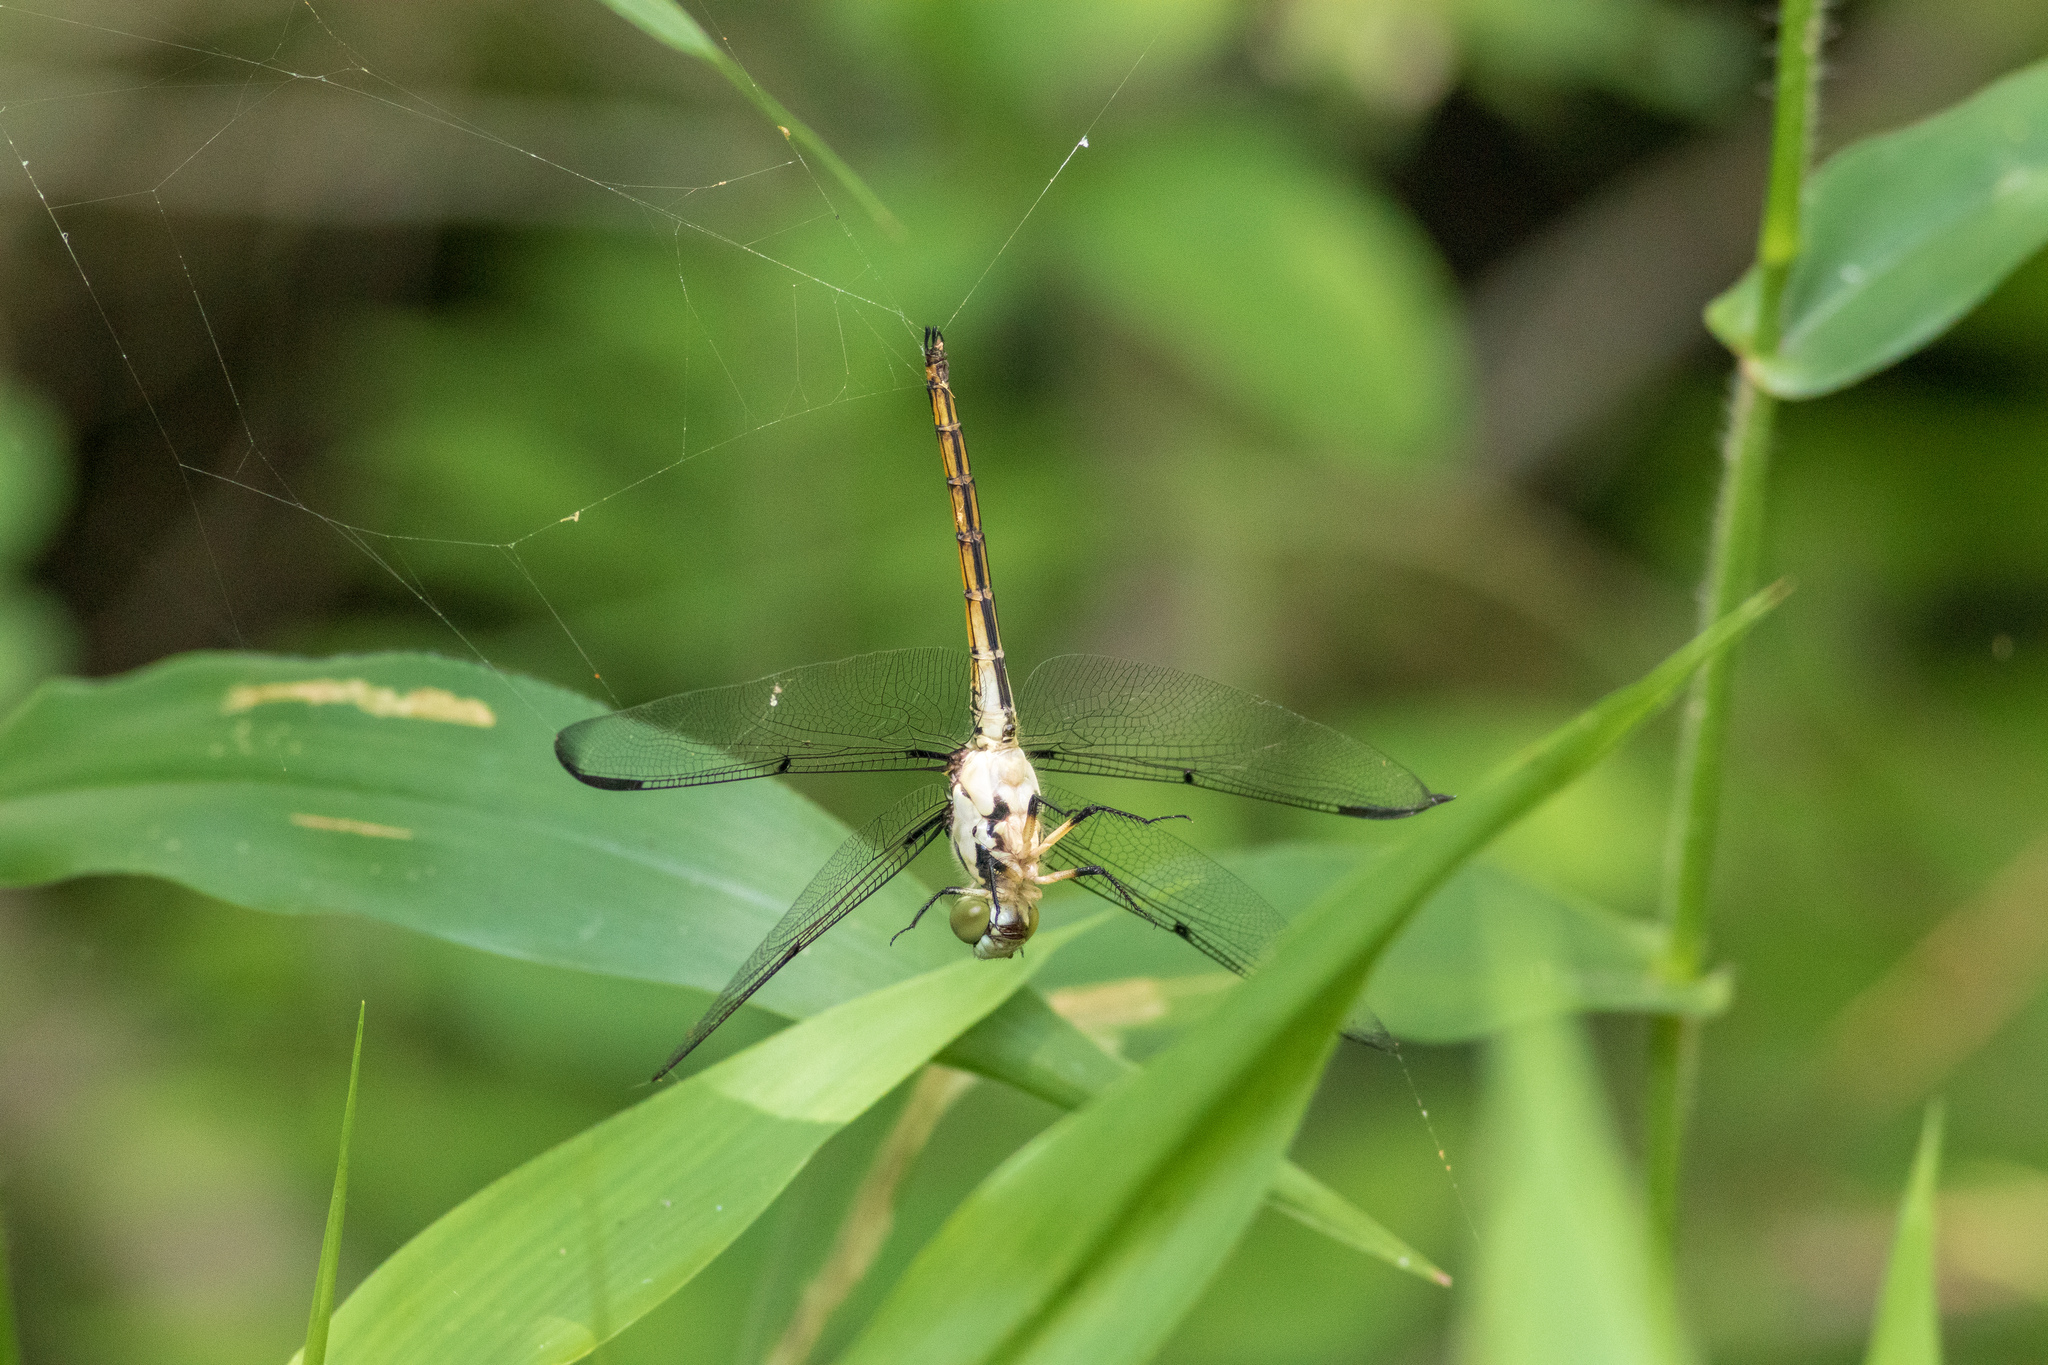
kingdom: Animalia
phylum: Arthropoda
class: Insecta
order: Odonata
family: Libellulidae
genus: Libellula
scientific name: Libellula vibrans
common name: Great blue skimmer
